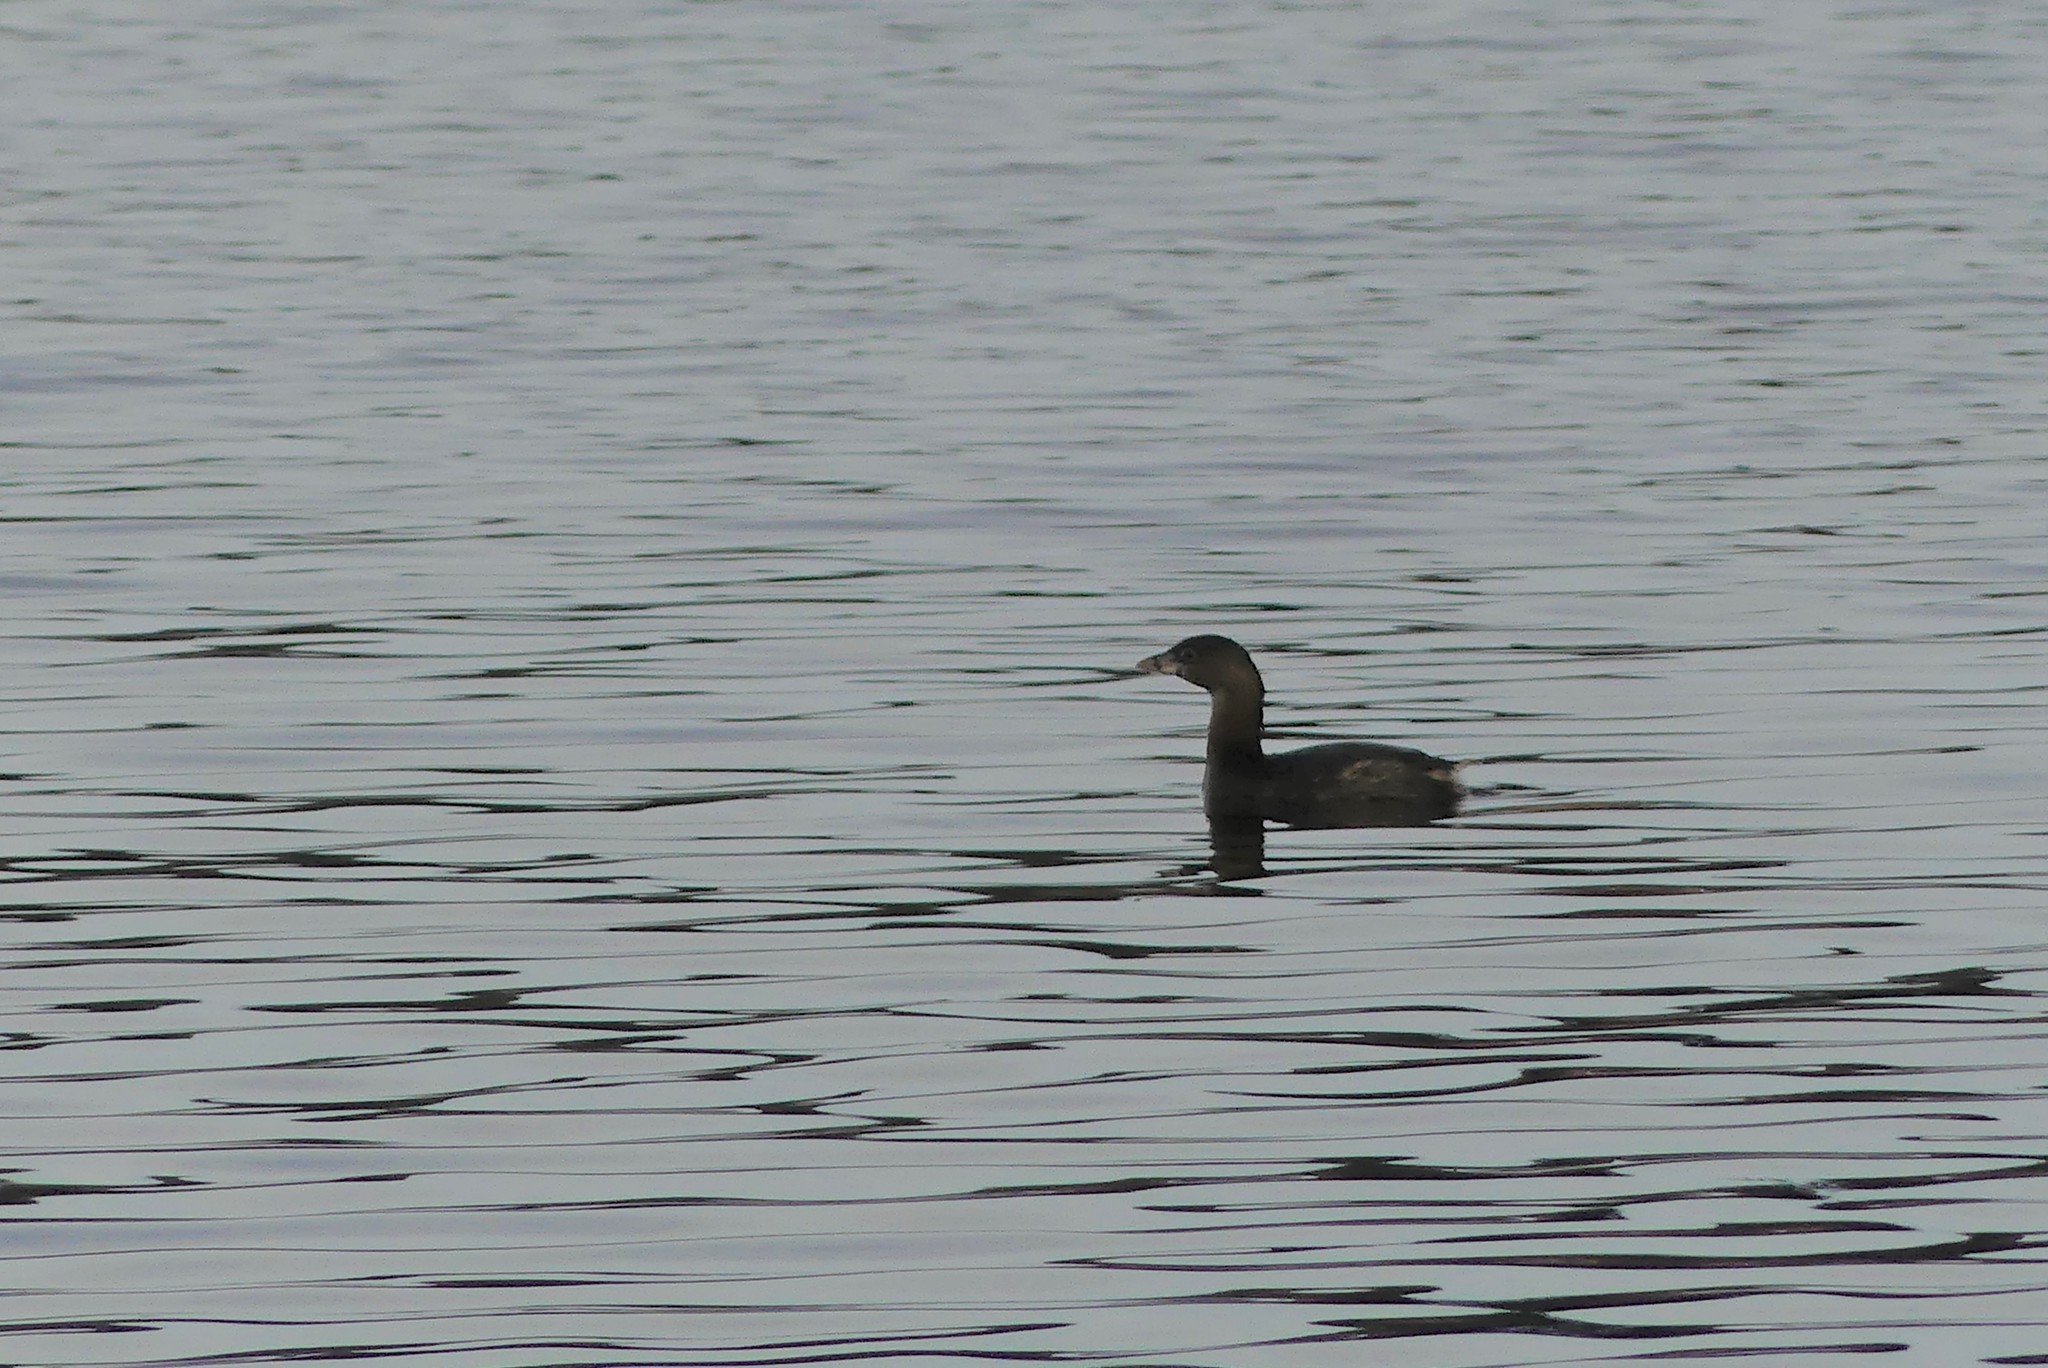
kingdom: Animalia
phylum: Chordata
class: Aves
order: Podicipediformes
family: Podicipedidae
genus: Podilymbus
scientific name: Podilymbus podiceps
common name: Pied-billed grebe
